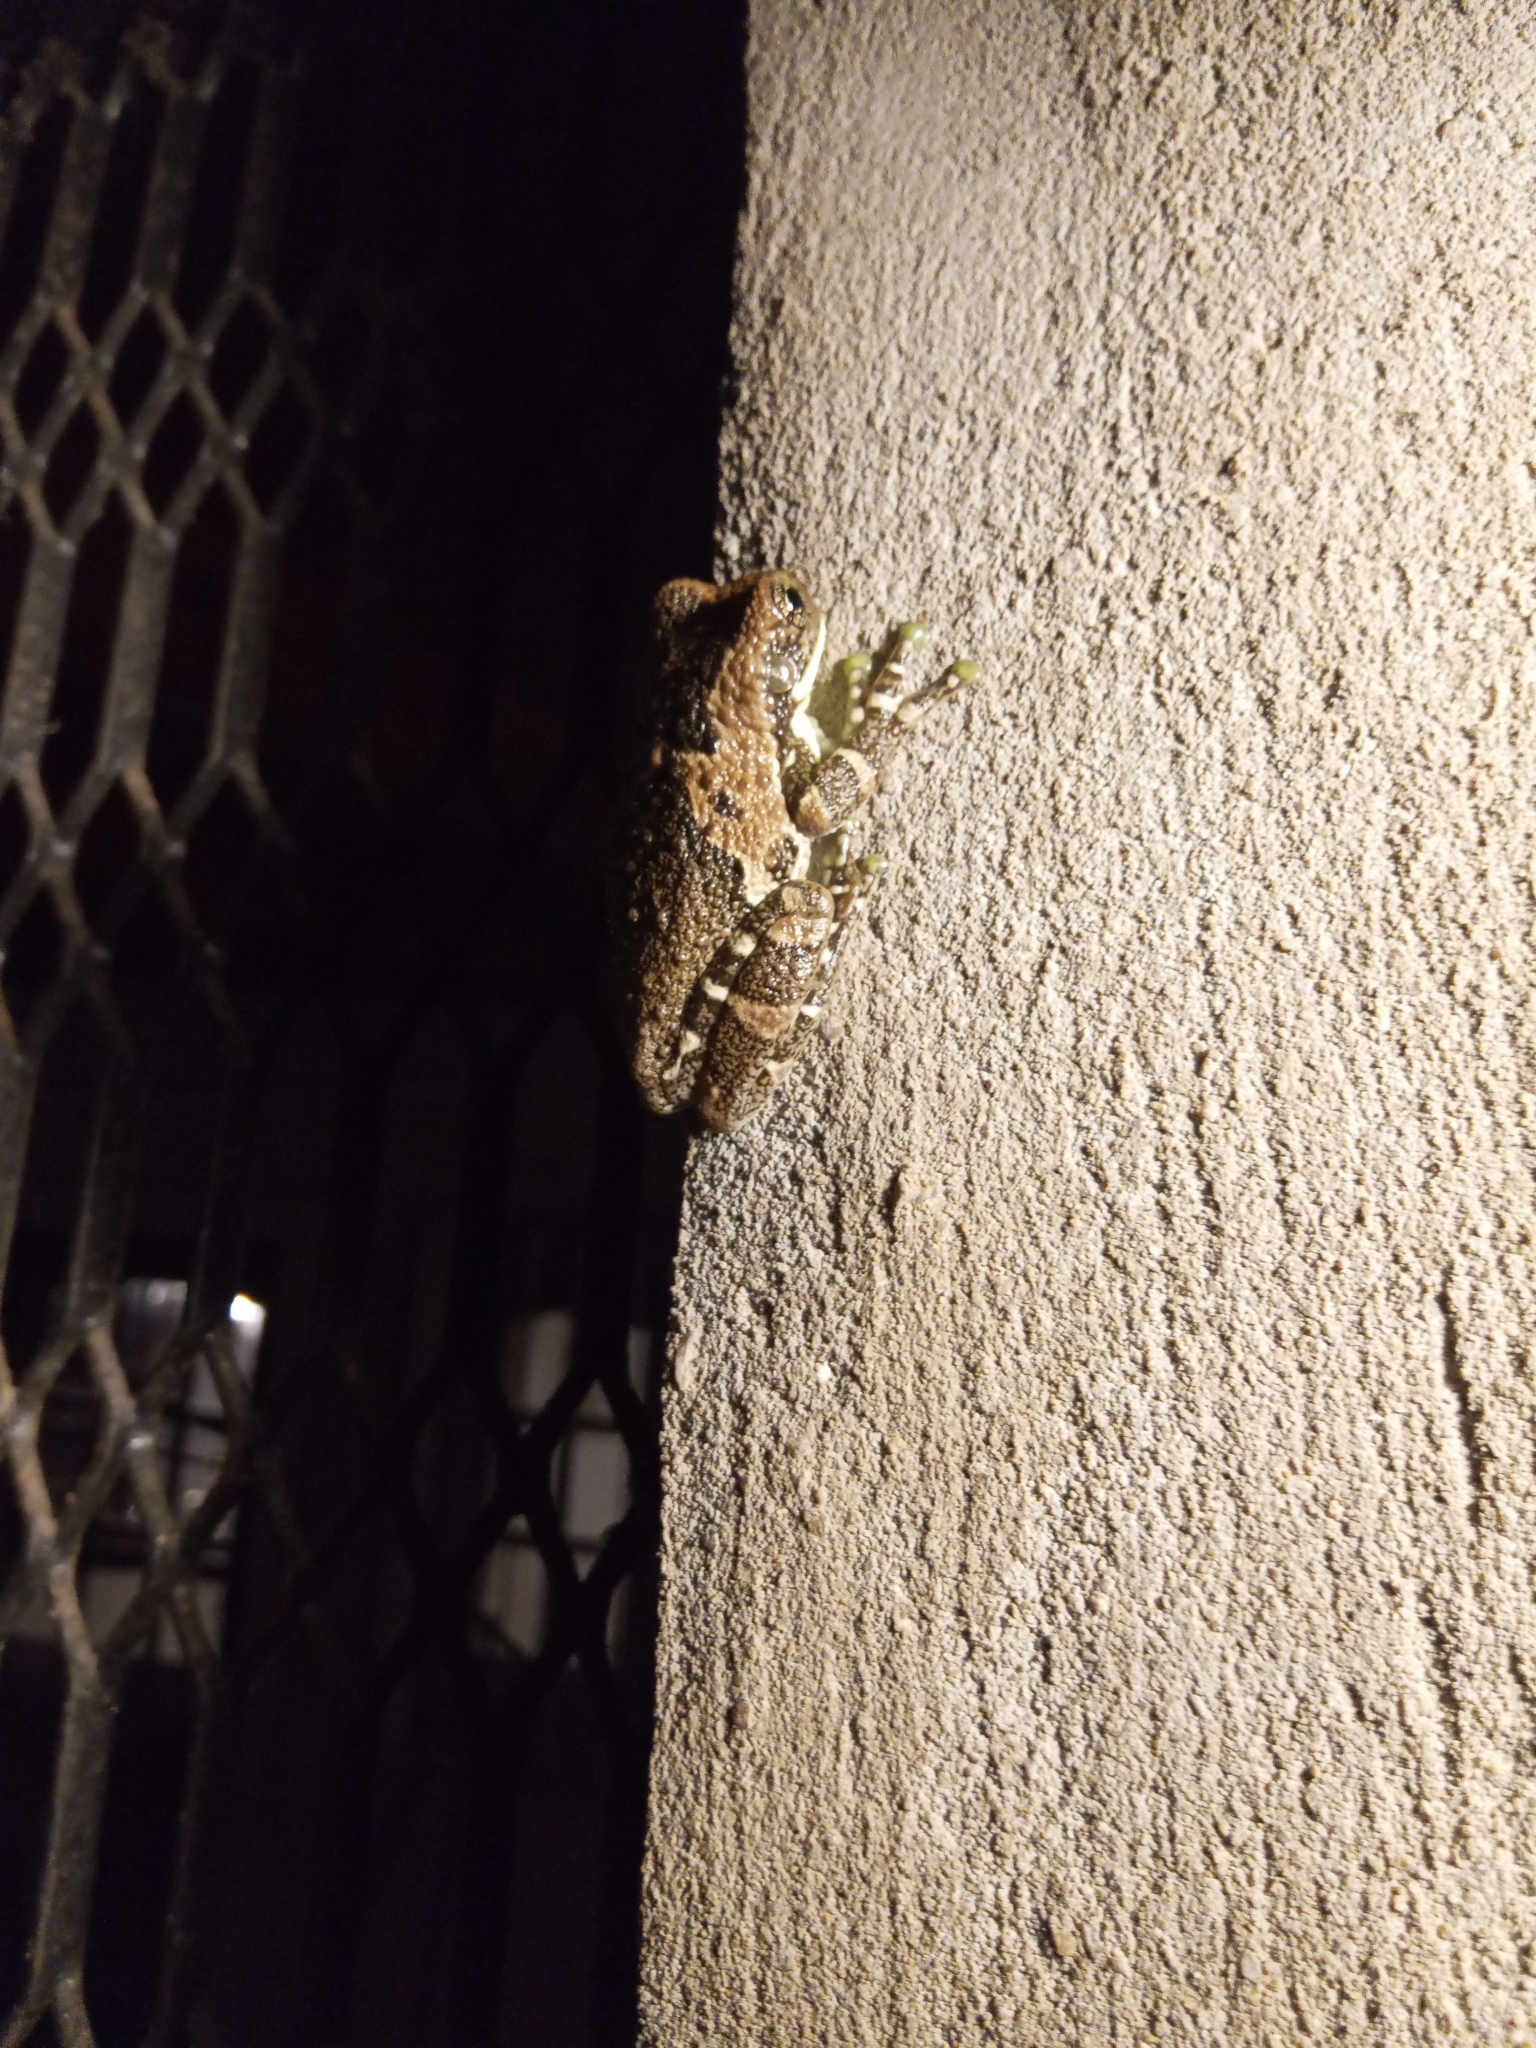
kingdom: Animalia
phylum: Chordata
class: Amphibia
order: Anura
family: Hylidae
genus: Trachycephalus
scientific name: Trachycephalus typhonius
